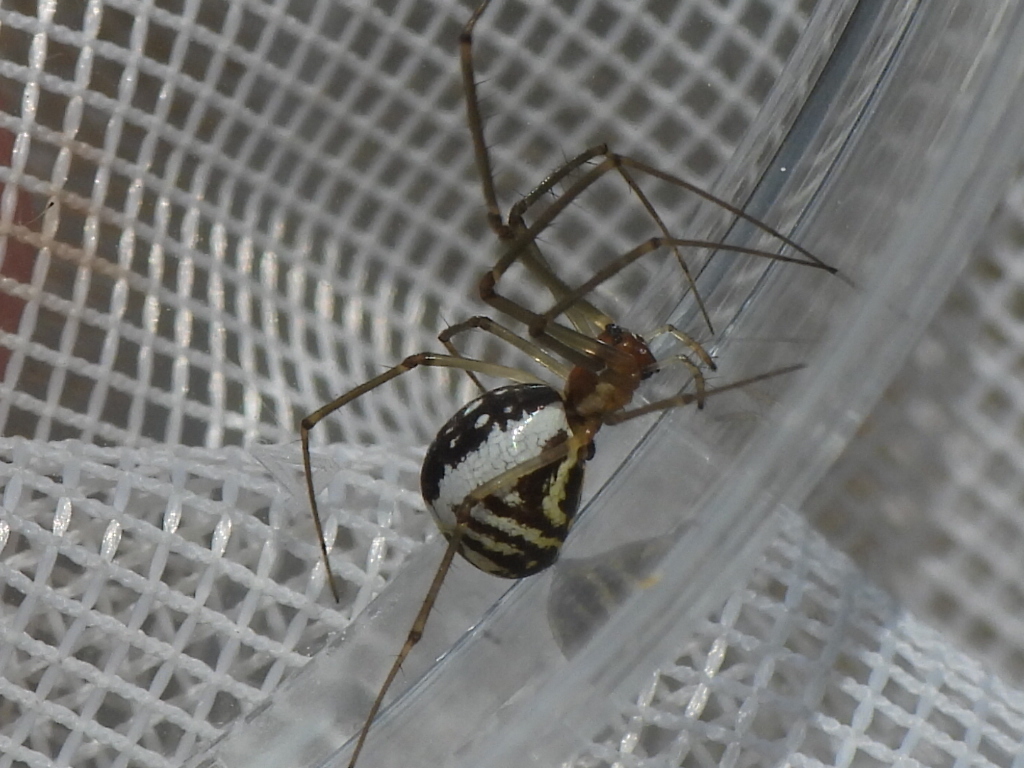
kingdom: Animalia
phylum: Arthropoda
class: Arachnida
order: Araneae
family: Linyphiidae
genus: Neriene
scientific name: Neriene radiata
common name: Filmy dome spider
